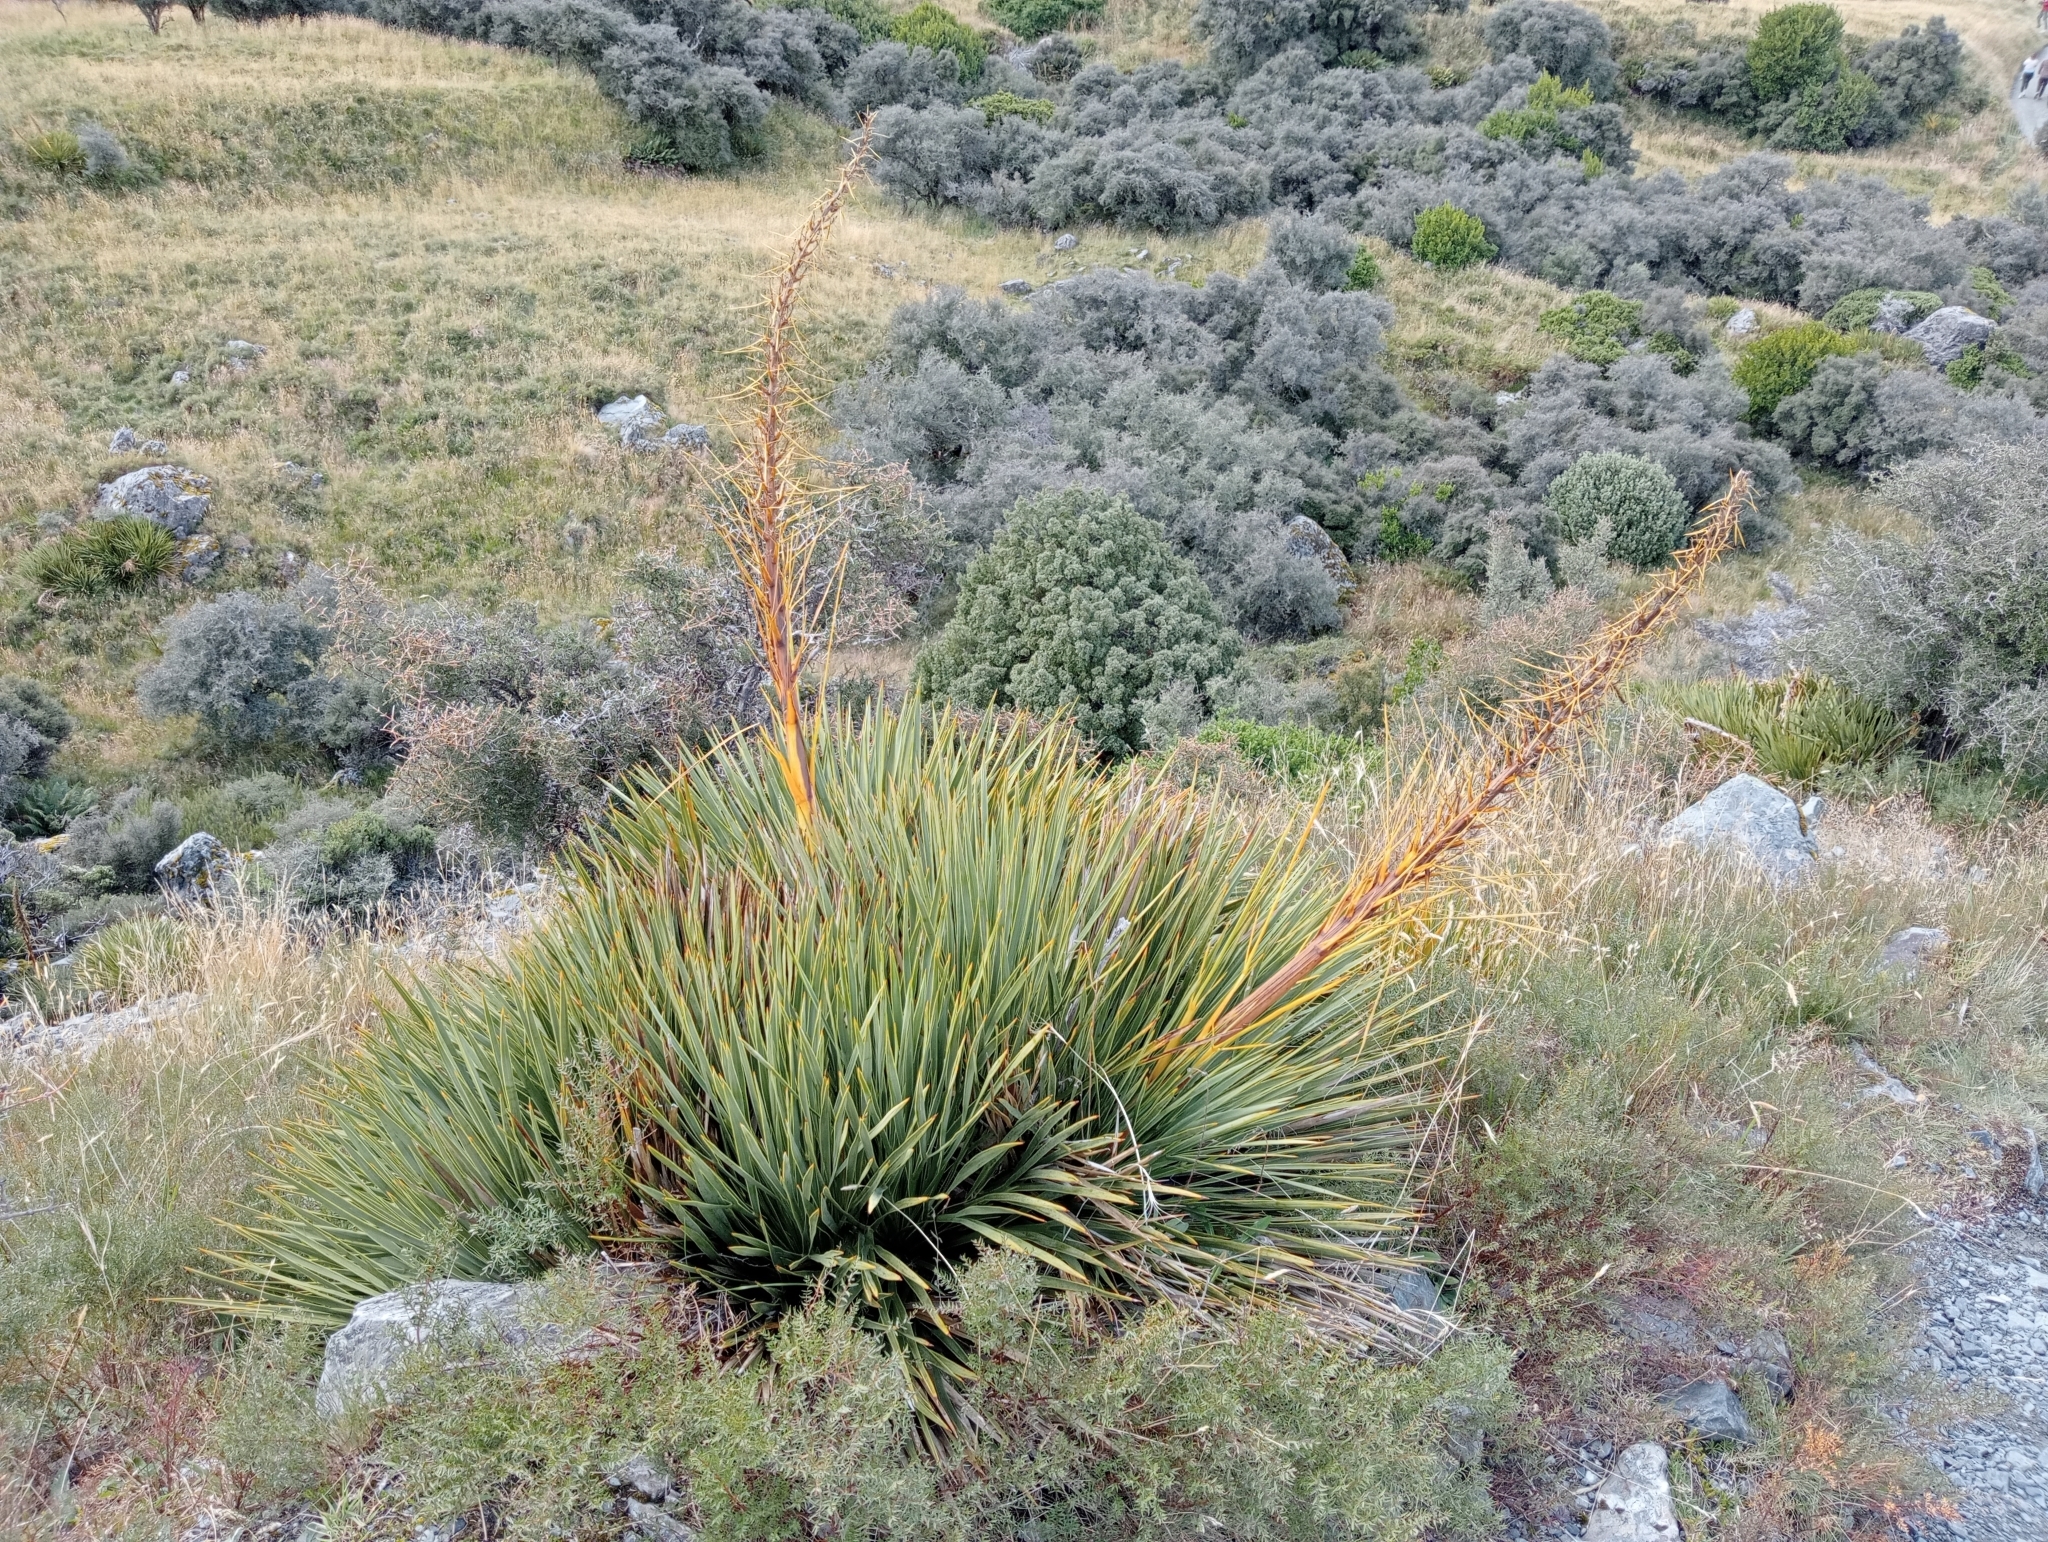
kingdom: Plantae
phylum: Tracheophyta
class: Magnoliopsida
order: Apiales
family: Apiaceae
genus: Aciphylla
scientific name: Aciphylla aurea
